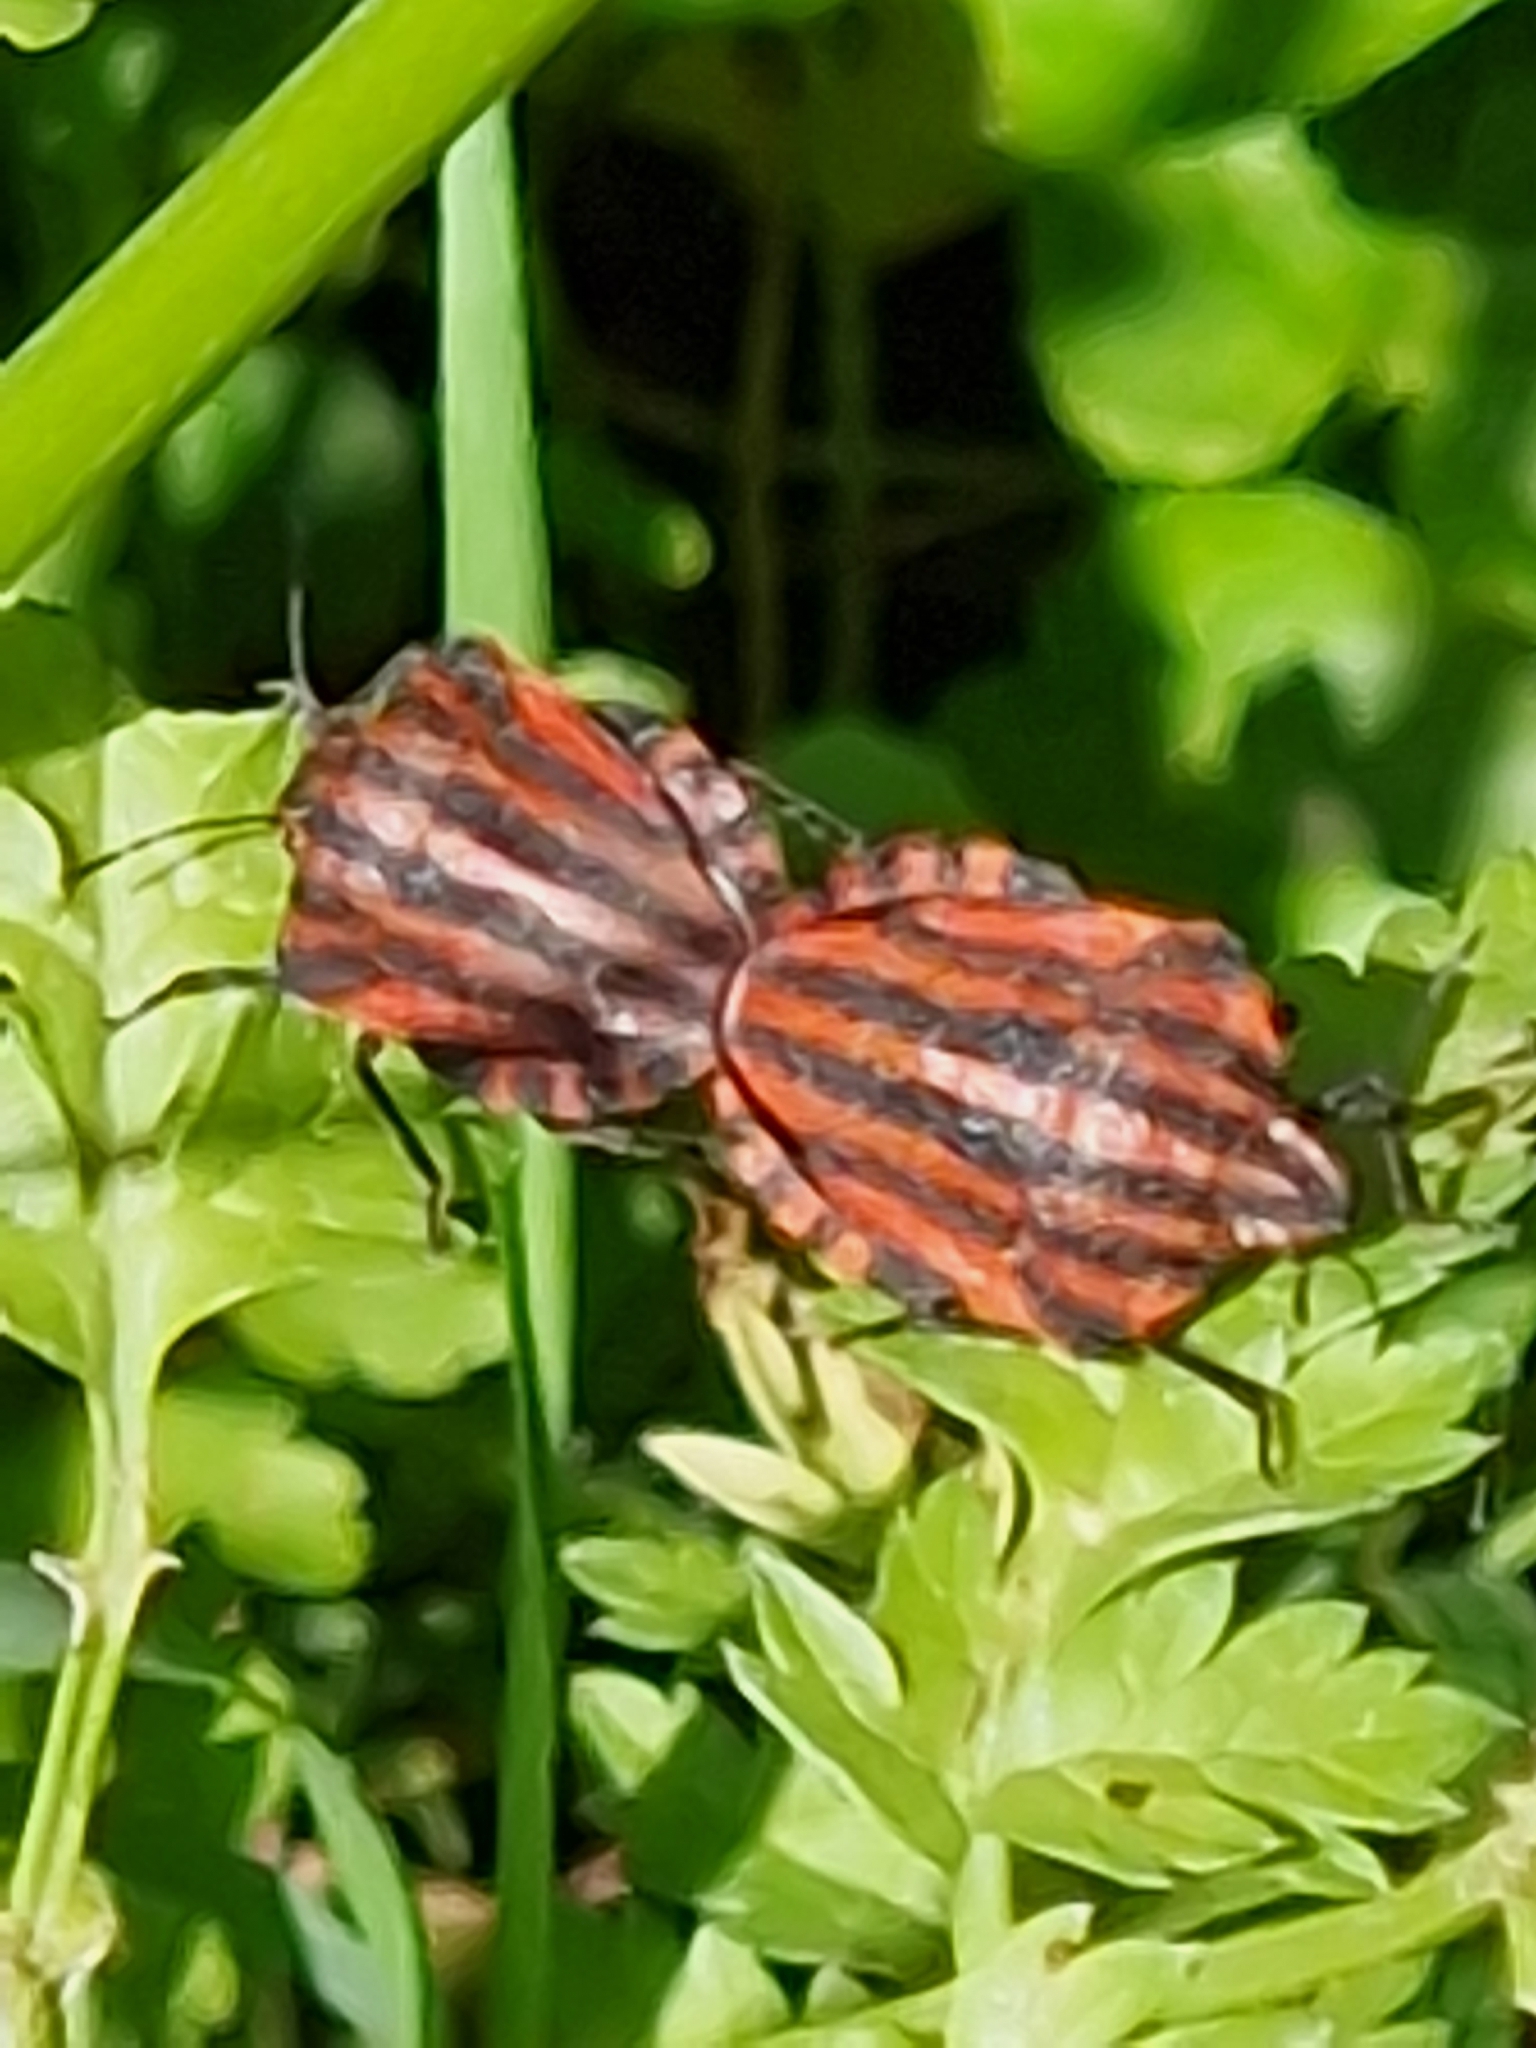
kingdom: Animalia
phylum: Arthropoda
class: Insecta
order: Hemiptera
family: Pentatomidae
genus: Graphosoma
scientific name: Graphosoma italicum
